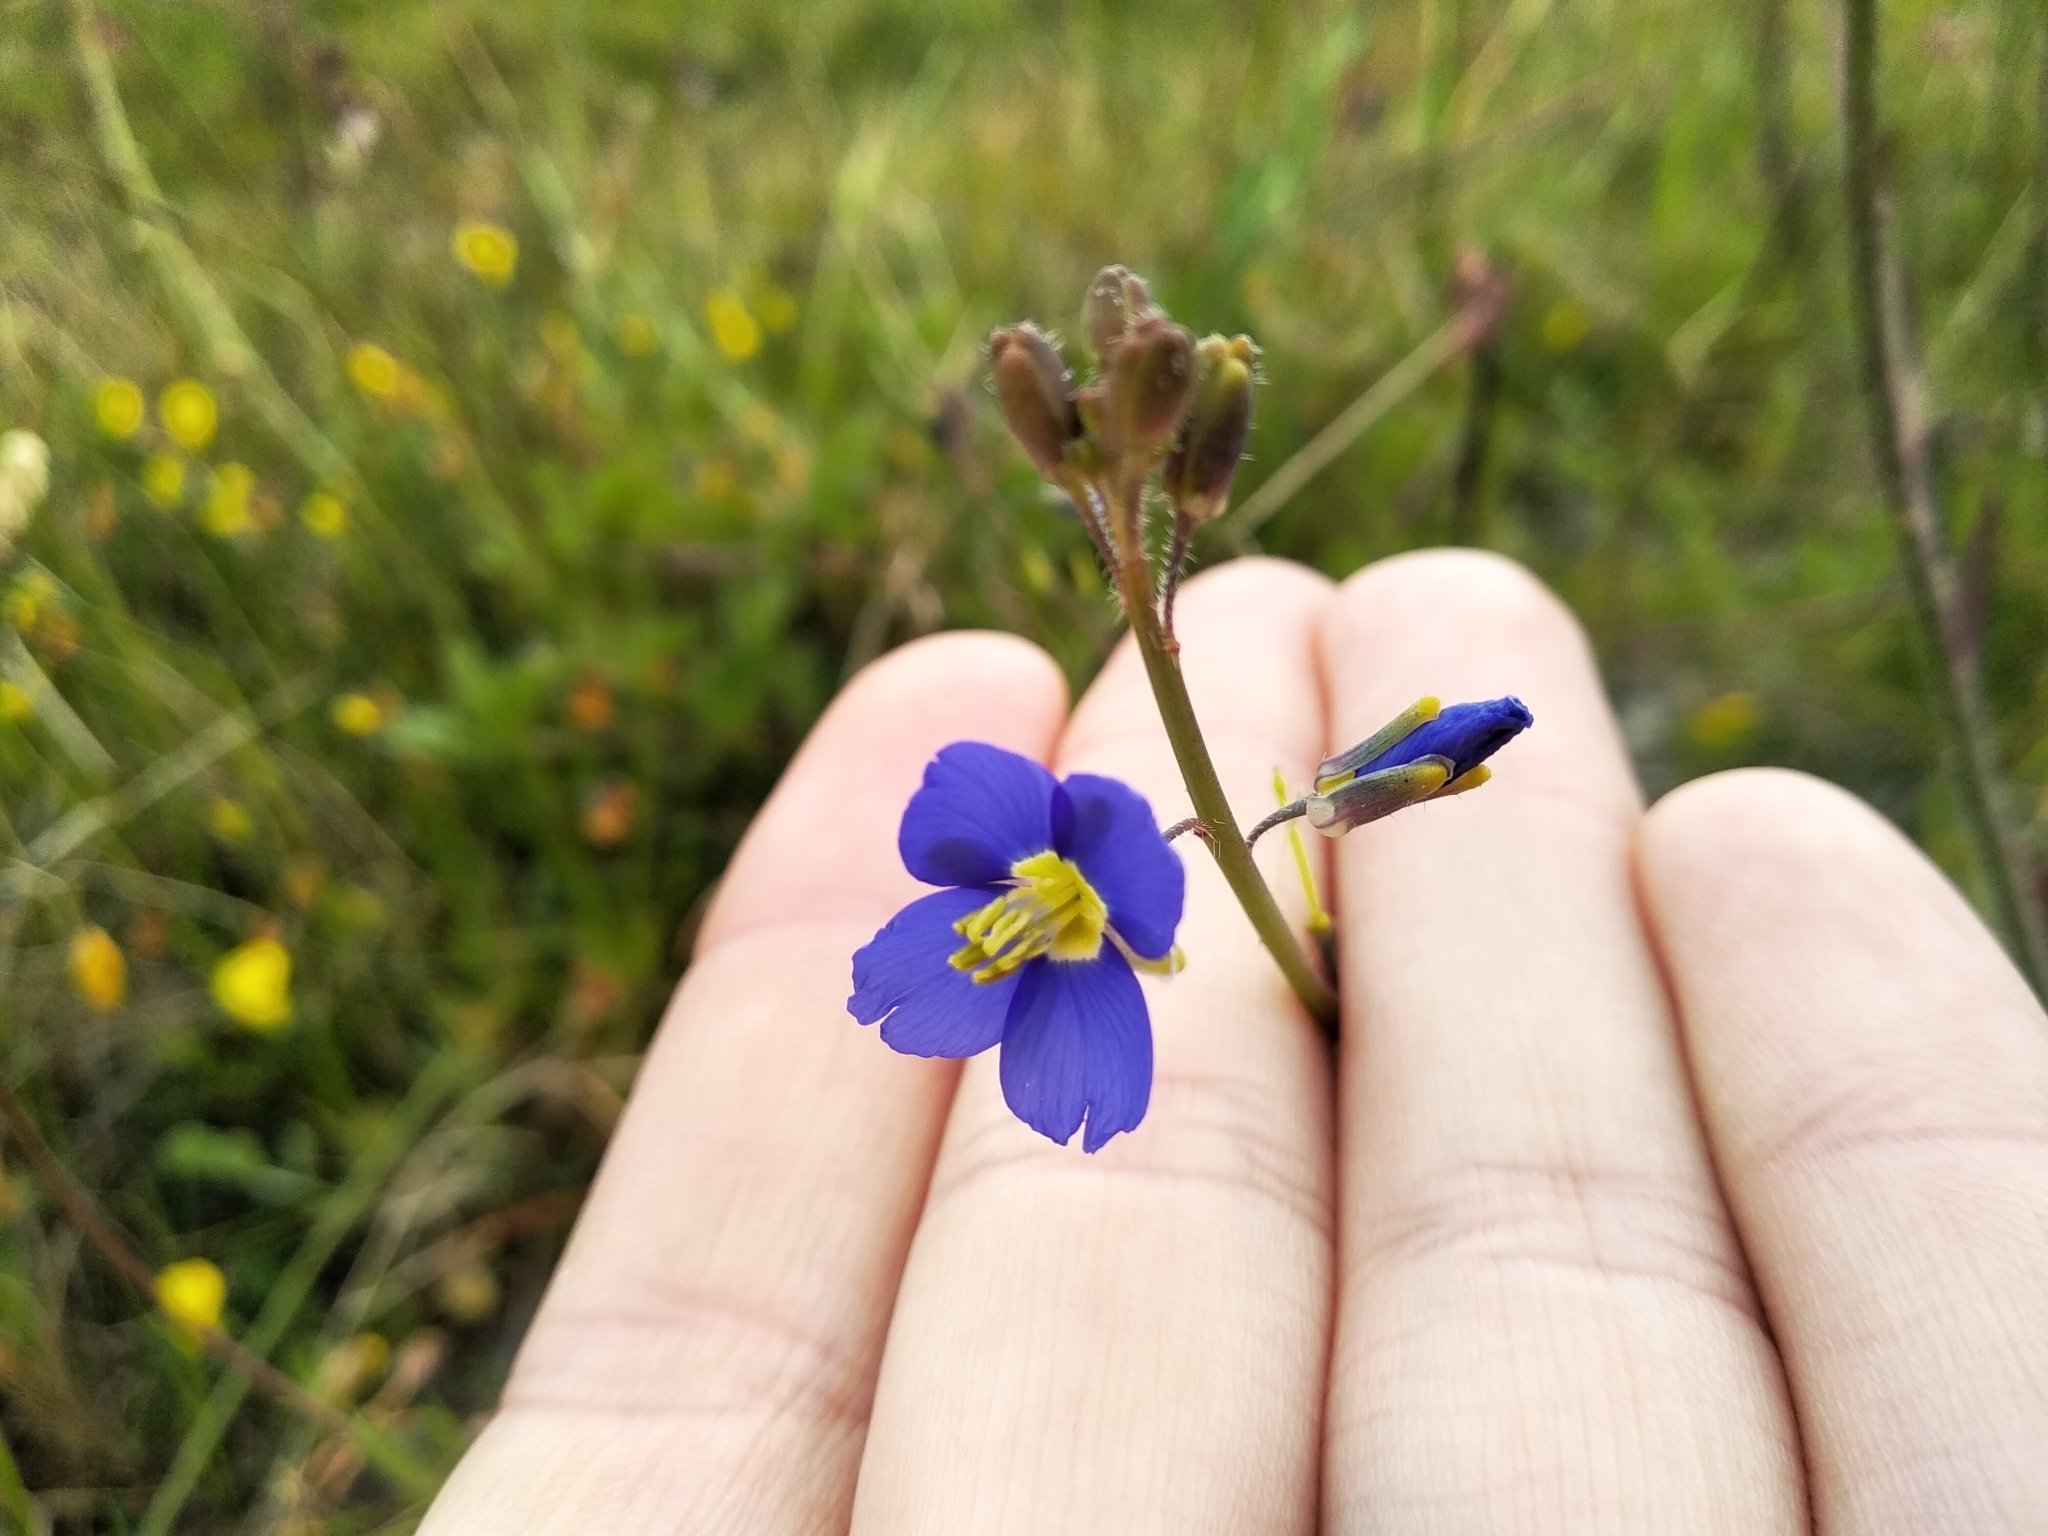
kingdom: Plantae
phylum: Tracheophyta
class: Magnoliopsida
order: Brassicales
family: Brassicaceae
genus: Heliophila
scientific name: Heliophila africana
